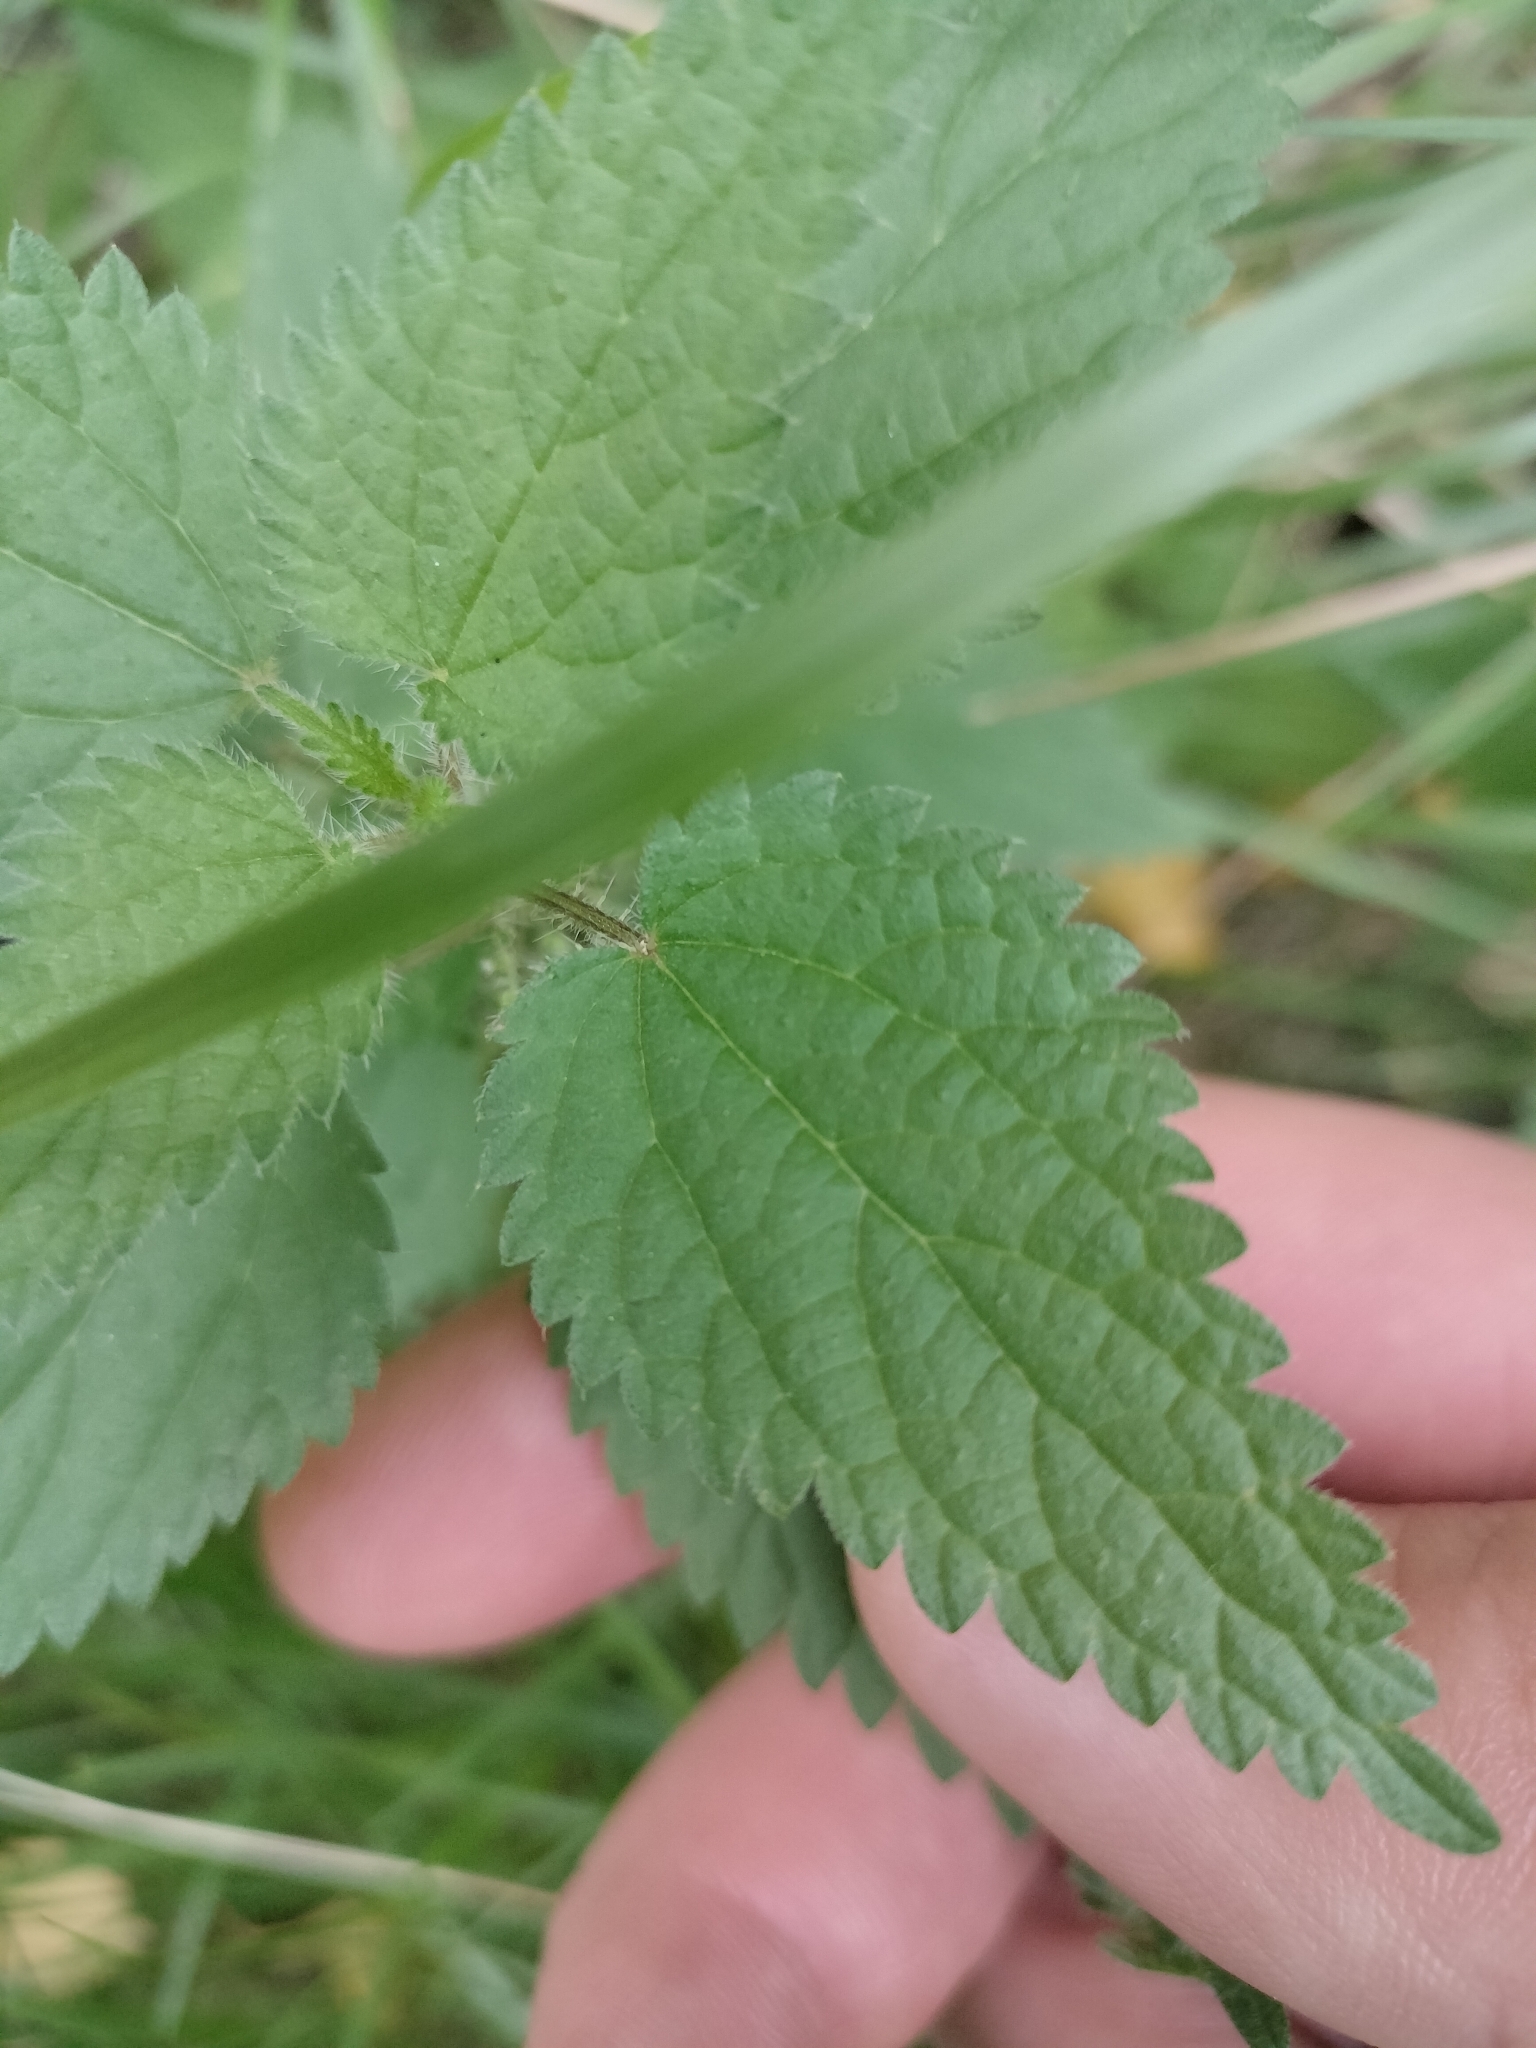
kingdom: Plantae
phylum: Tracheophyta
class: Magnoliopsida
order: Rosales
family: Urticaceae
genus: Urtica
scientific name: Urtica dioica
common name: Common nettle
